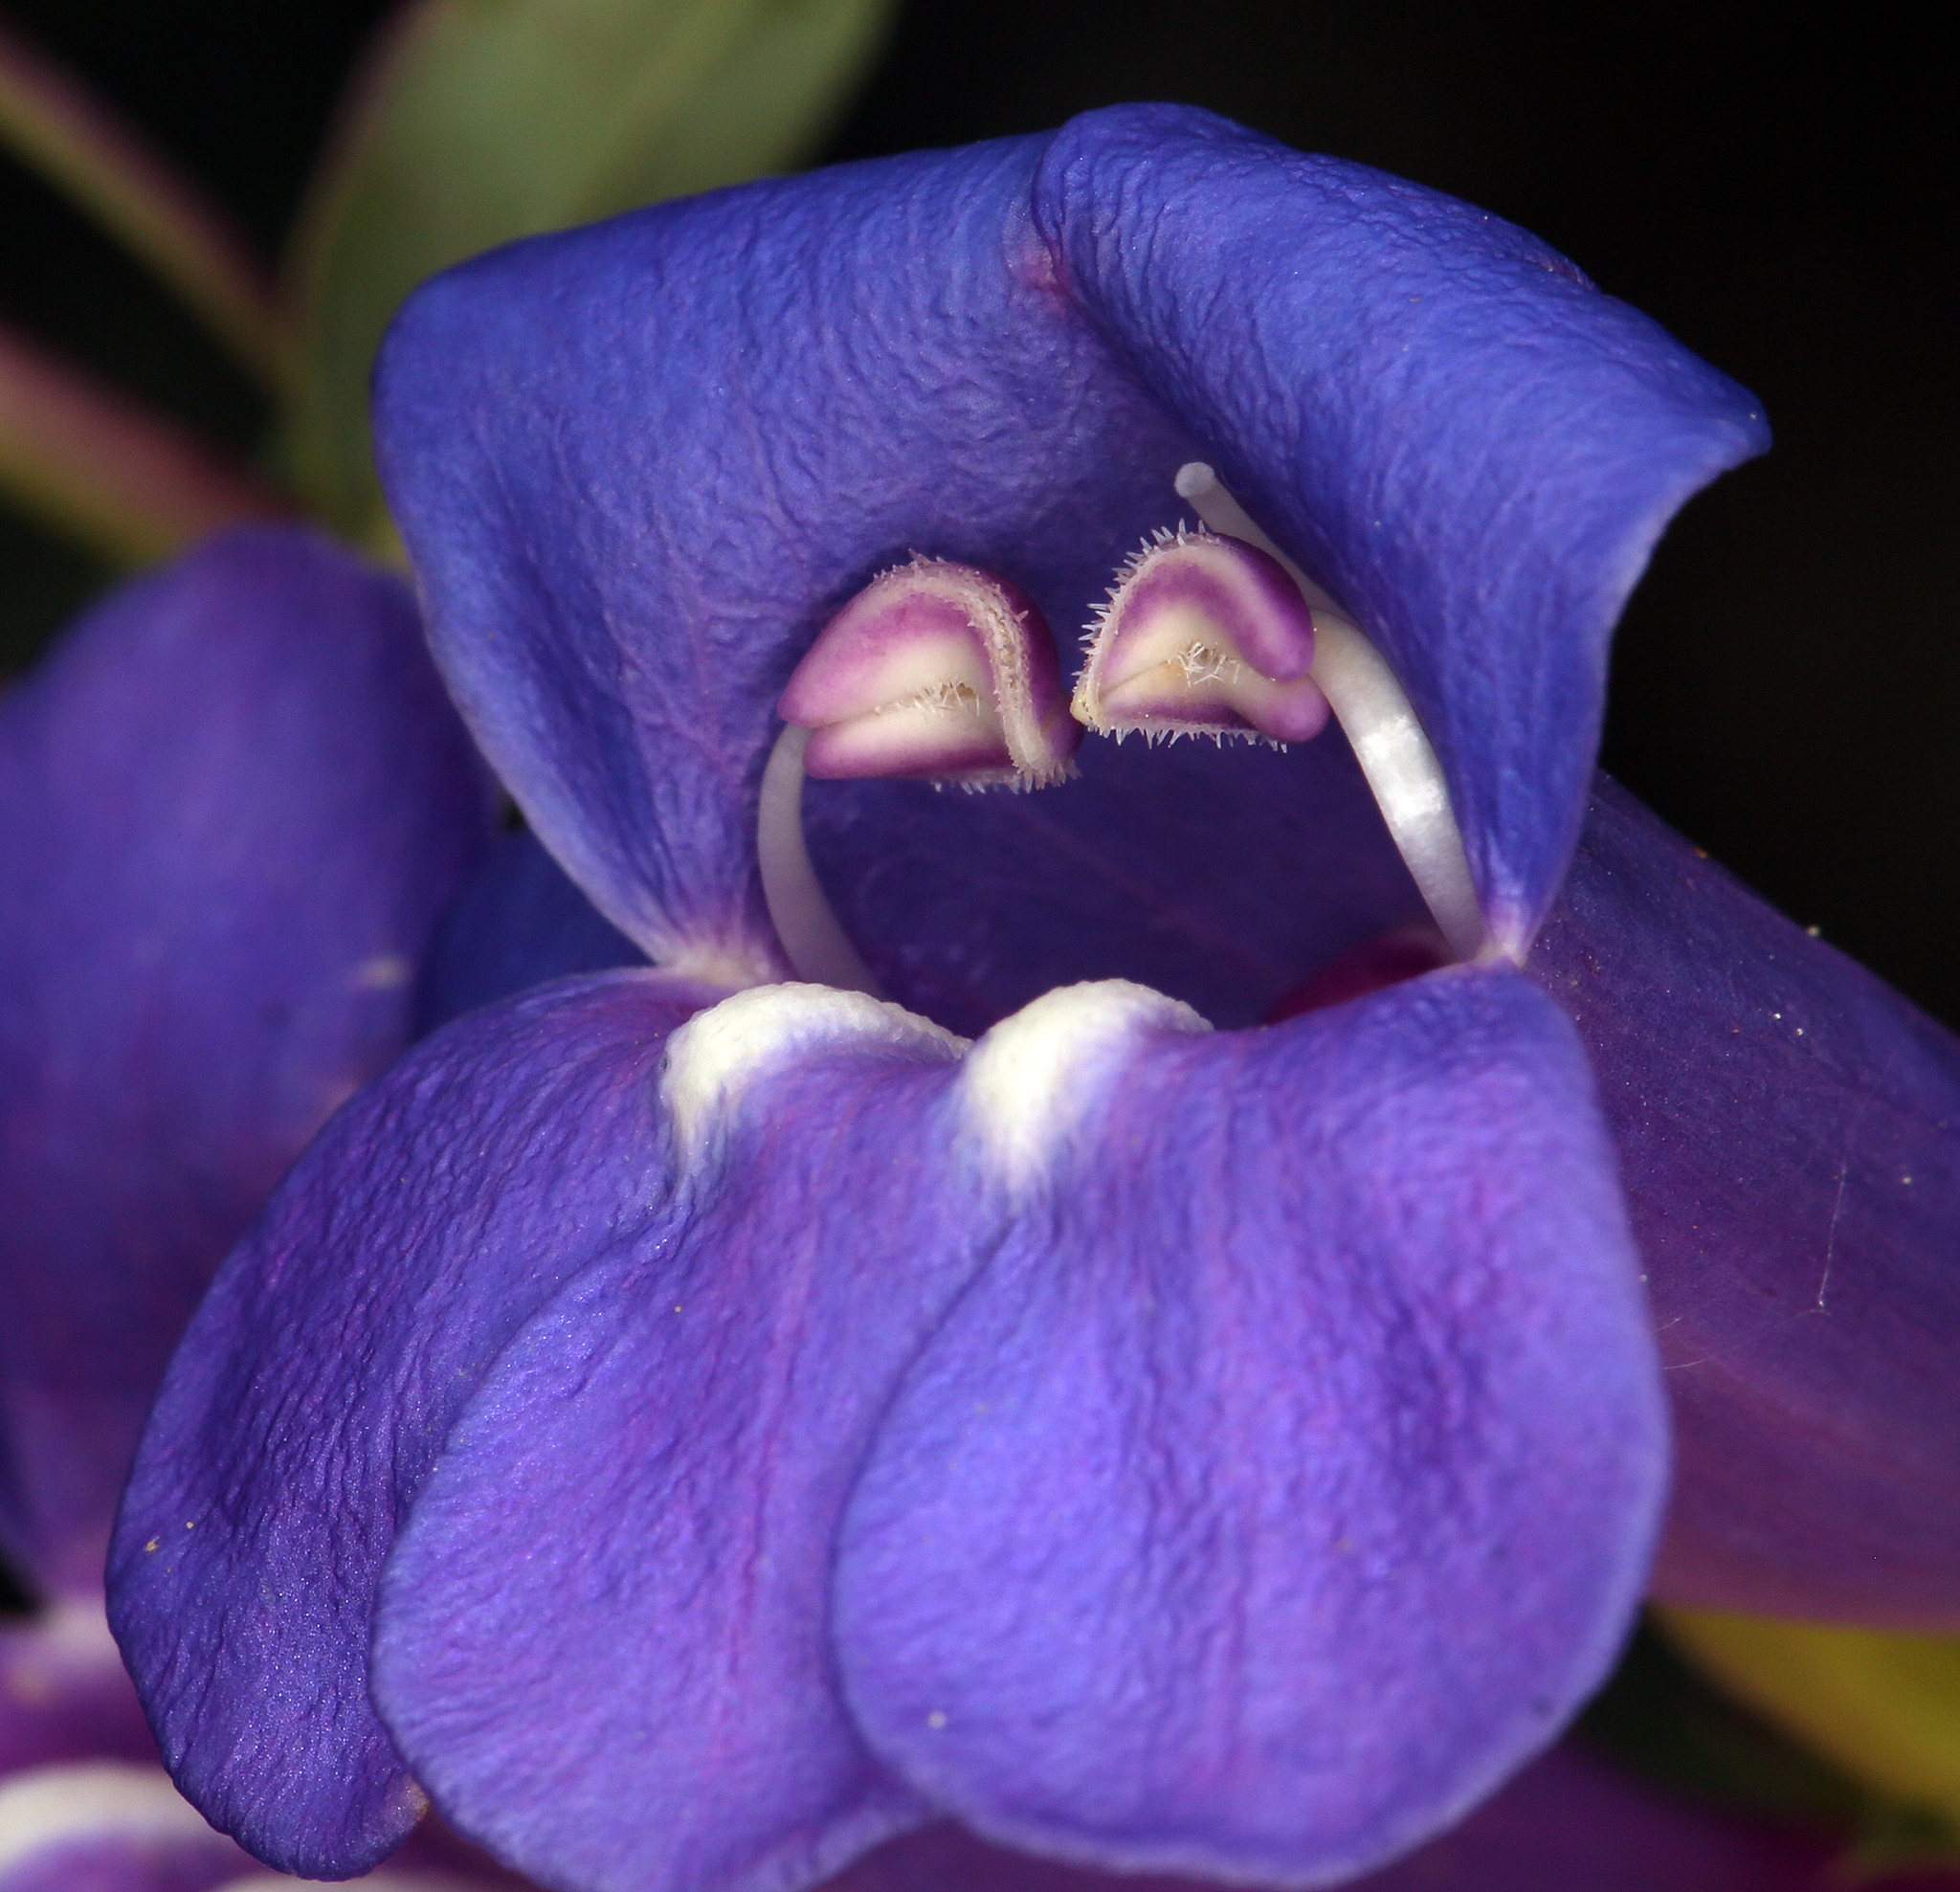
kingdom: Plantae
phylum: Tracheophyta
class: Magnoliopsida
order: Lamiales
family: Plantaginaceae
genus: Penstemon
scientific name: Penstemon azureus
